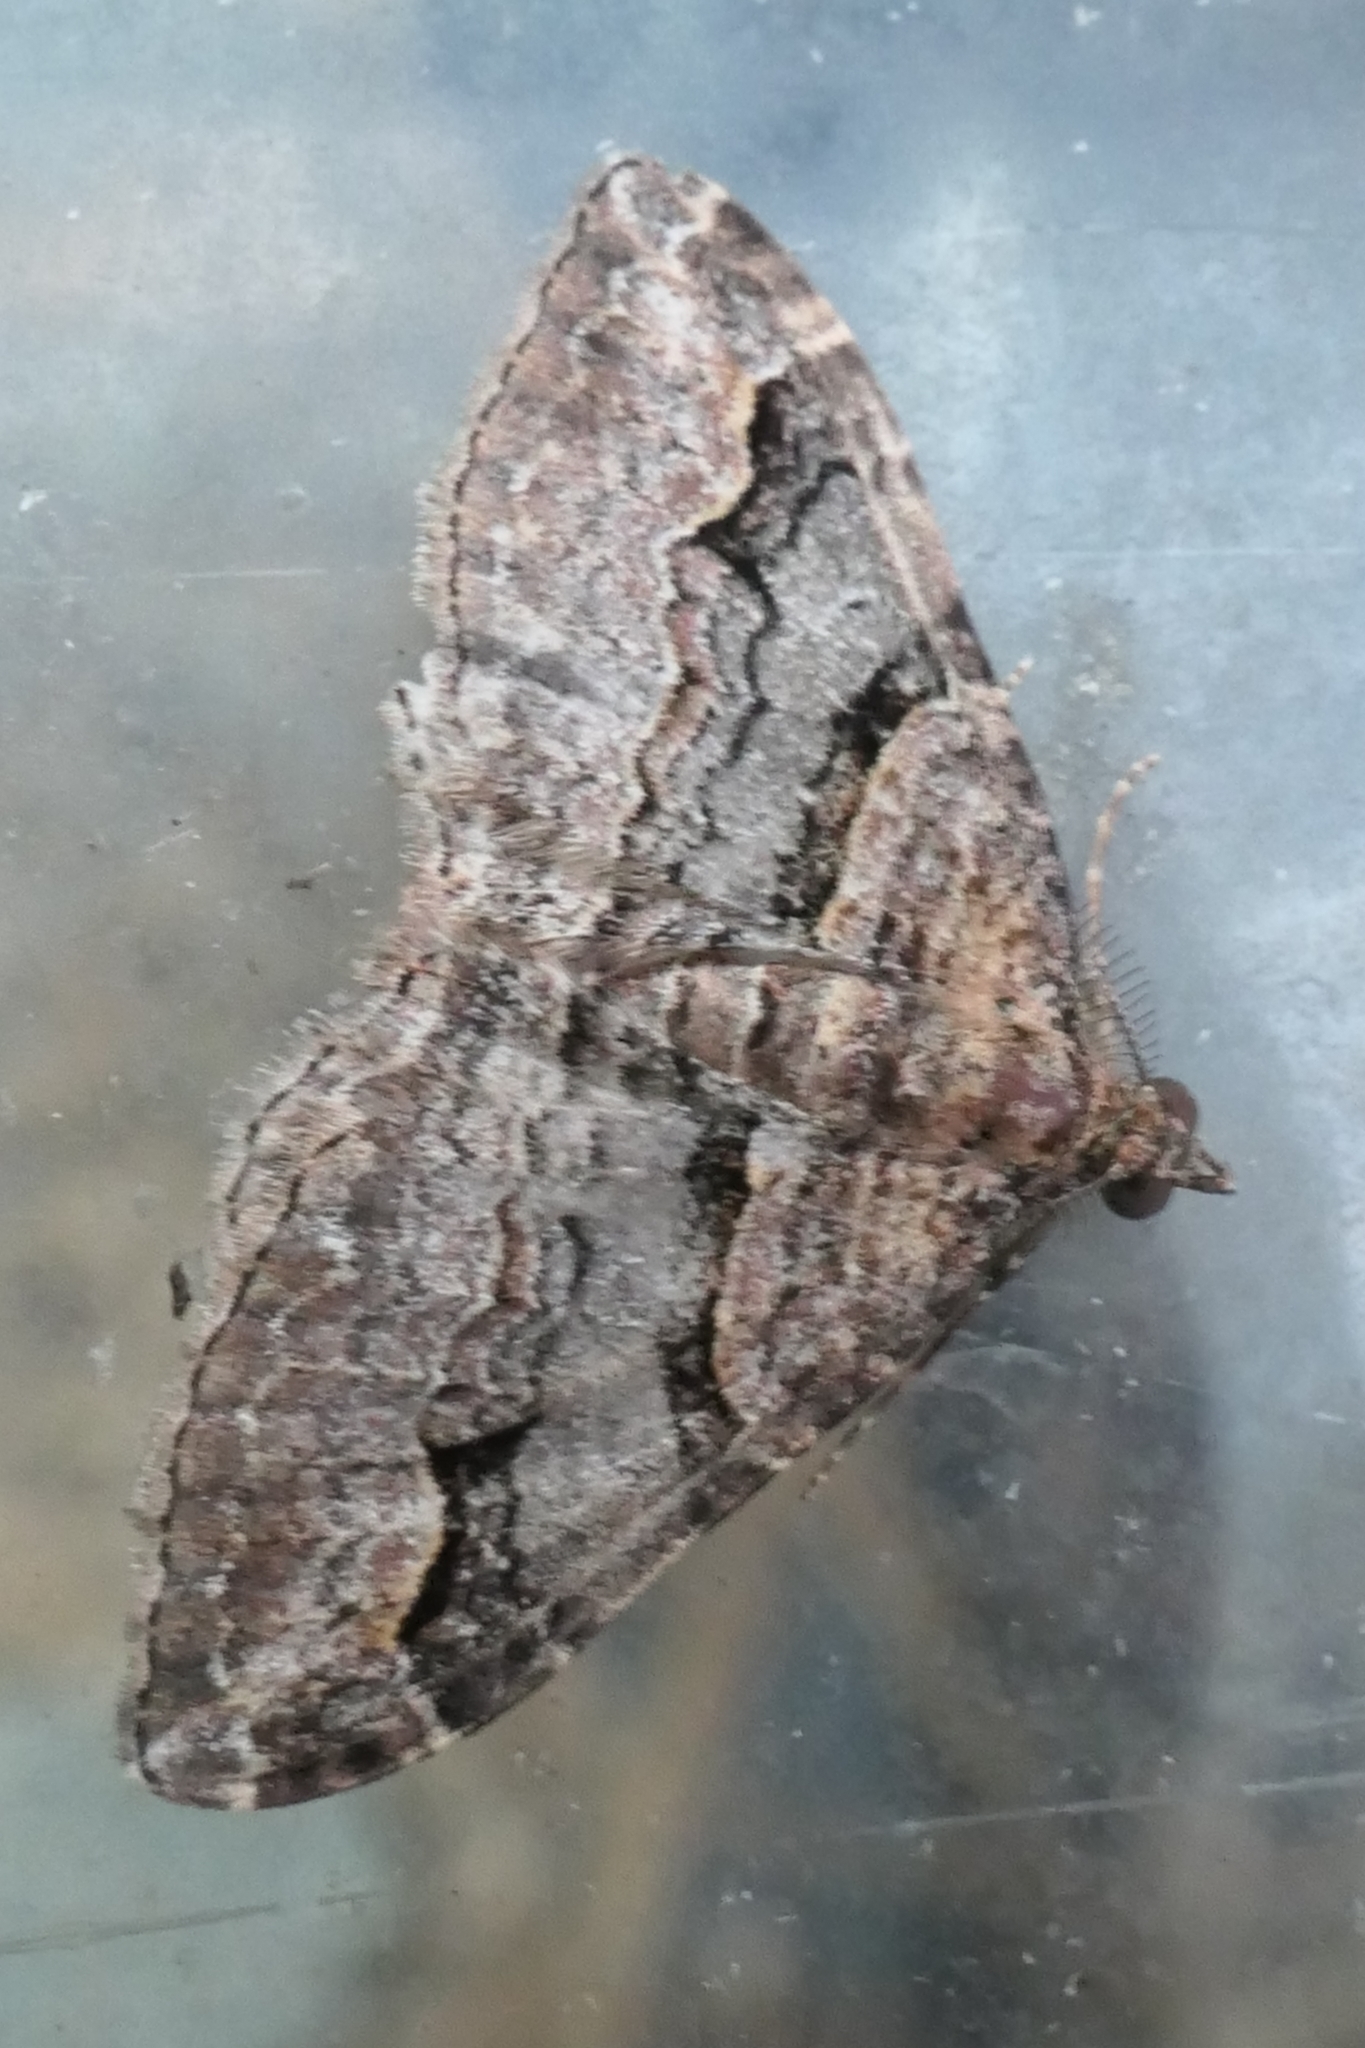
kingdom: Animalia
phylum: Arthropoda
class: Insecta
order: Lepidoptera
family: Geometridae
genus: Epyaxa
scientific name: Epyaxa lucidata
